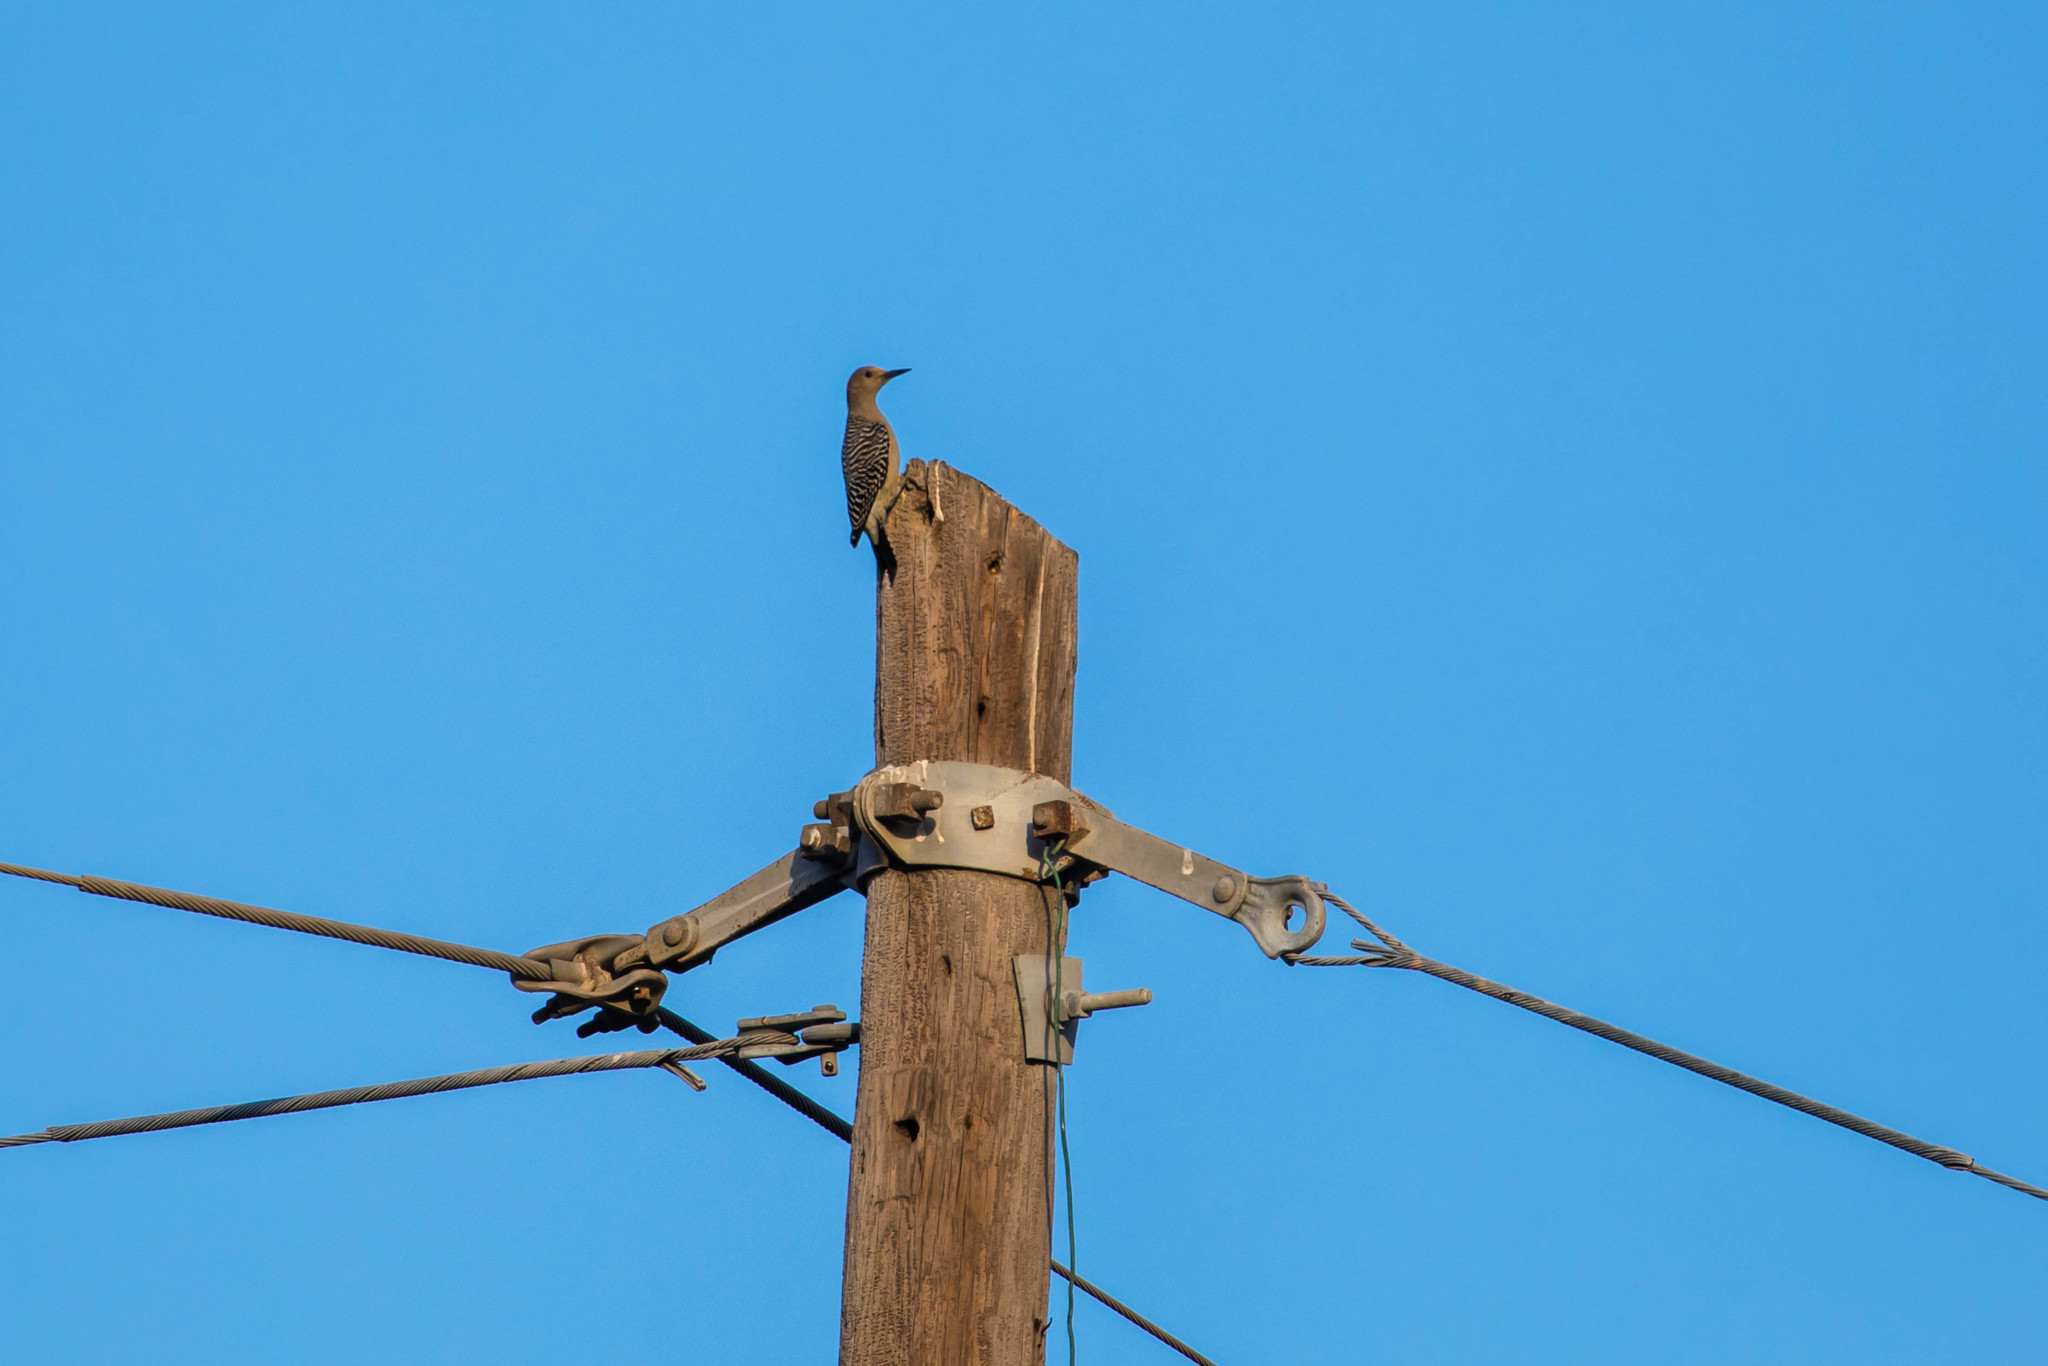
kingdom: Animalia
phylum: Chordata
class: Aves
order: Piciformes
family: Picidae
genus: Melanerpes
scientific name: Melanerpes aurifrons
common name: Golden-fronted woodpecker
